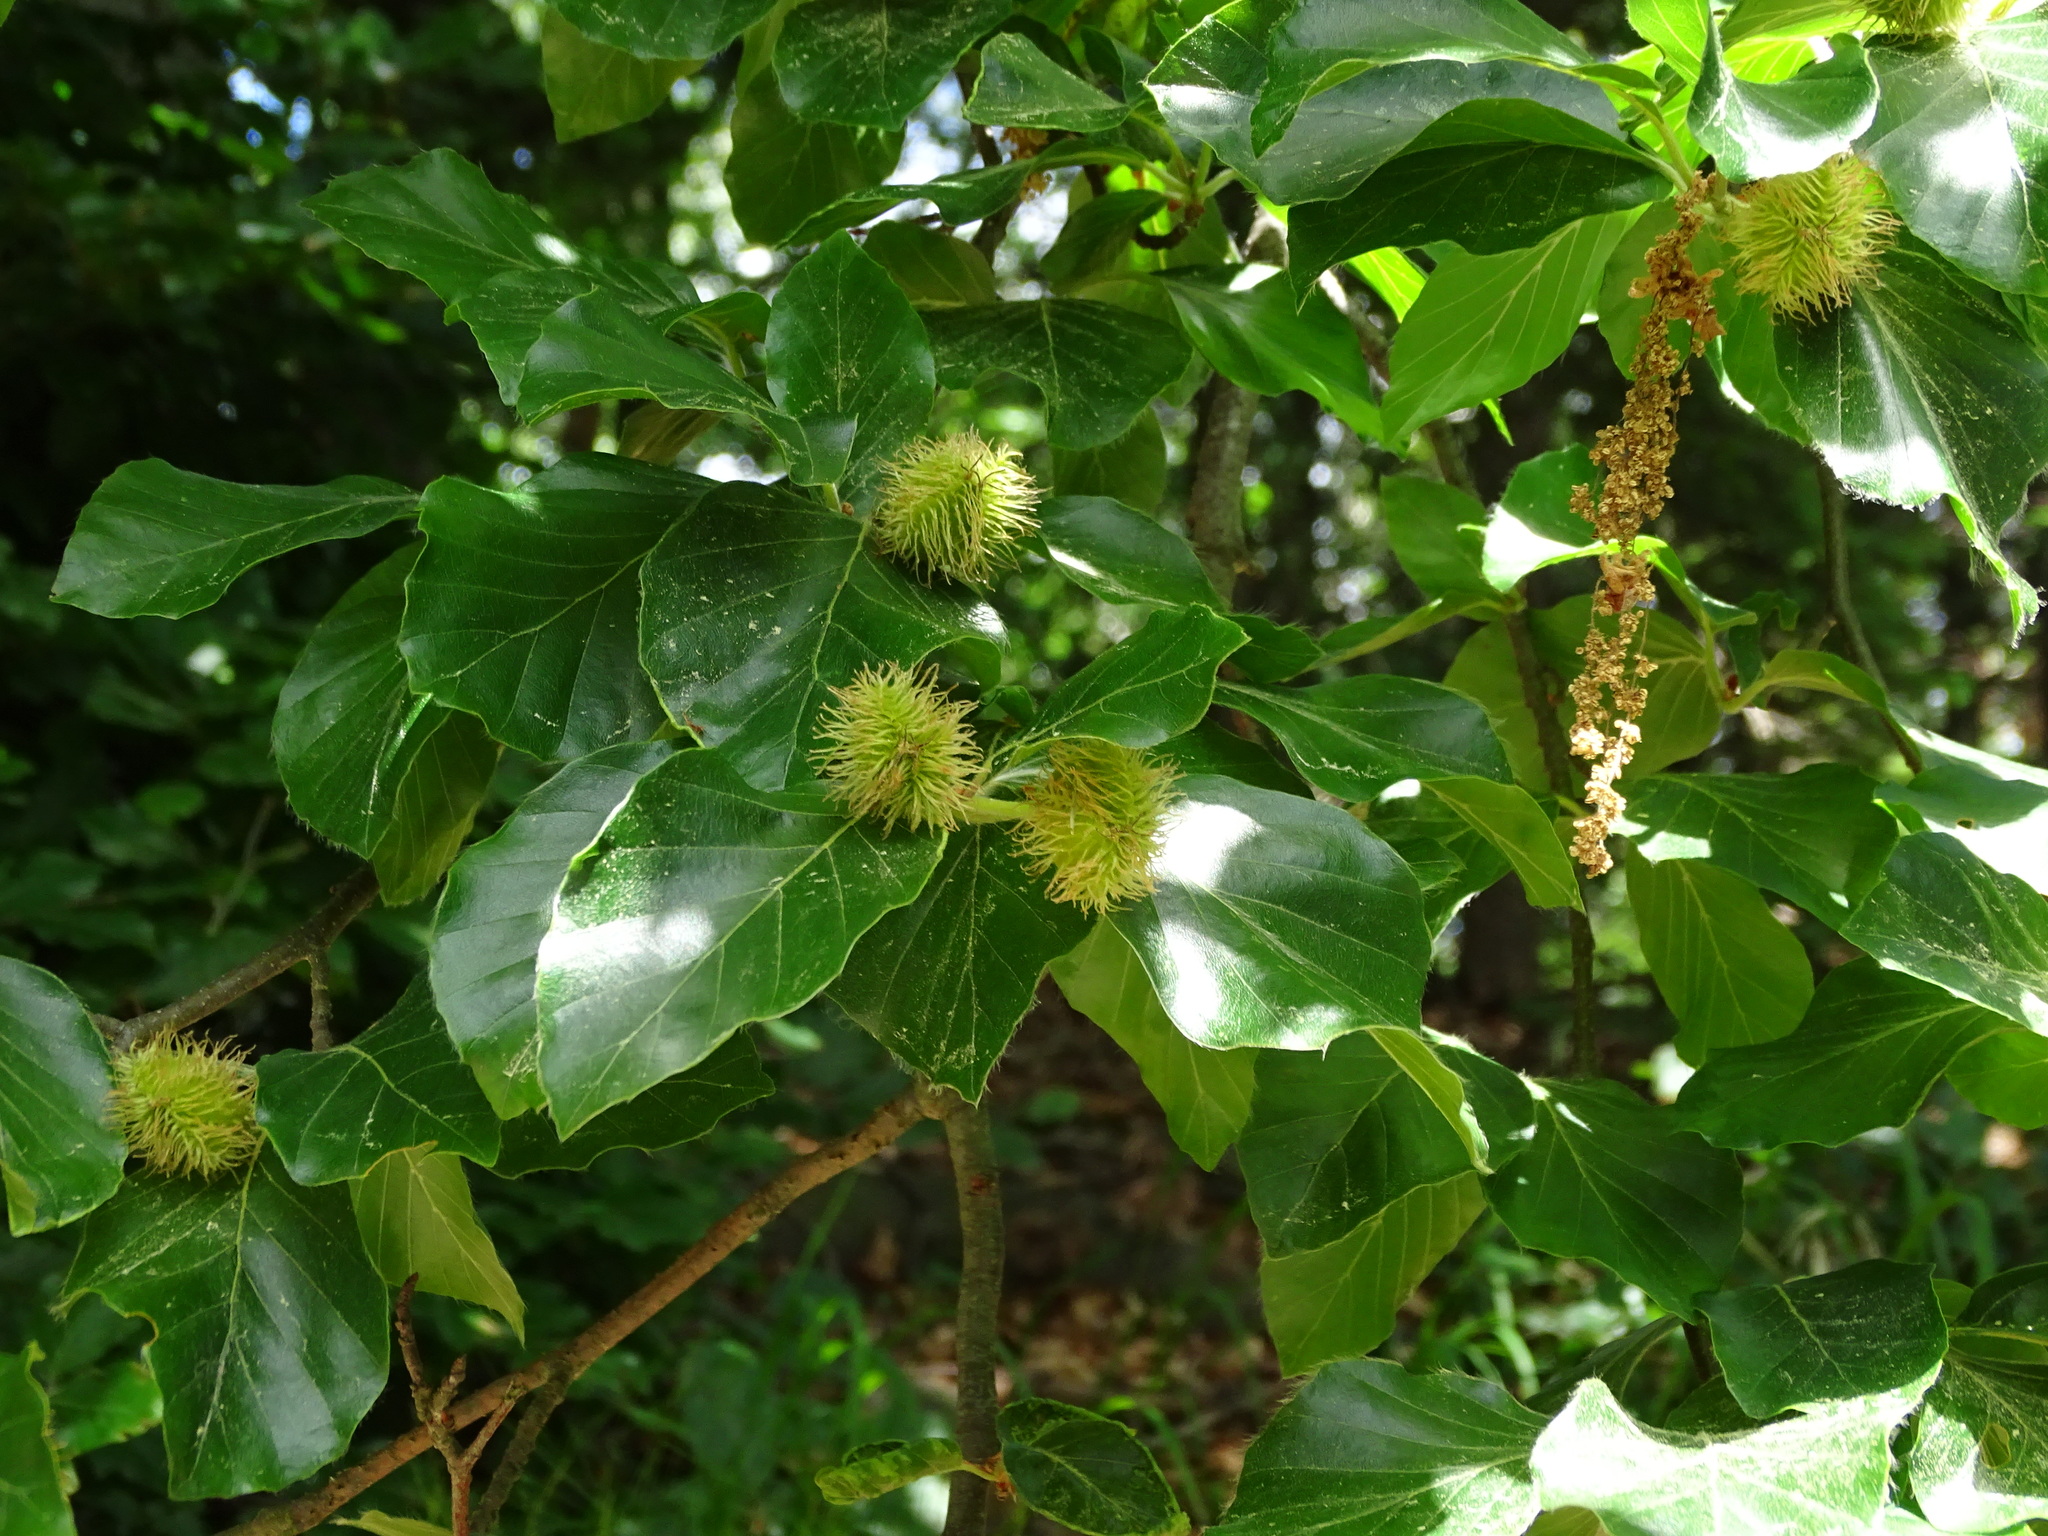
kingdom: Plantae
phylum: Tracheophyta
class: Magnoliopsida
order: Fagales
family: Fagaceae
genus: Fagus
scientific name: Fagus sylvatica
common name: Beech
